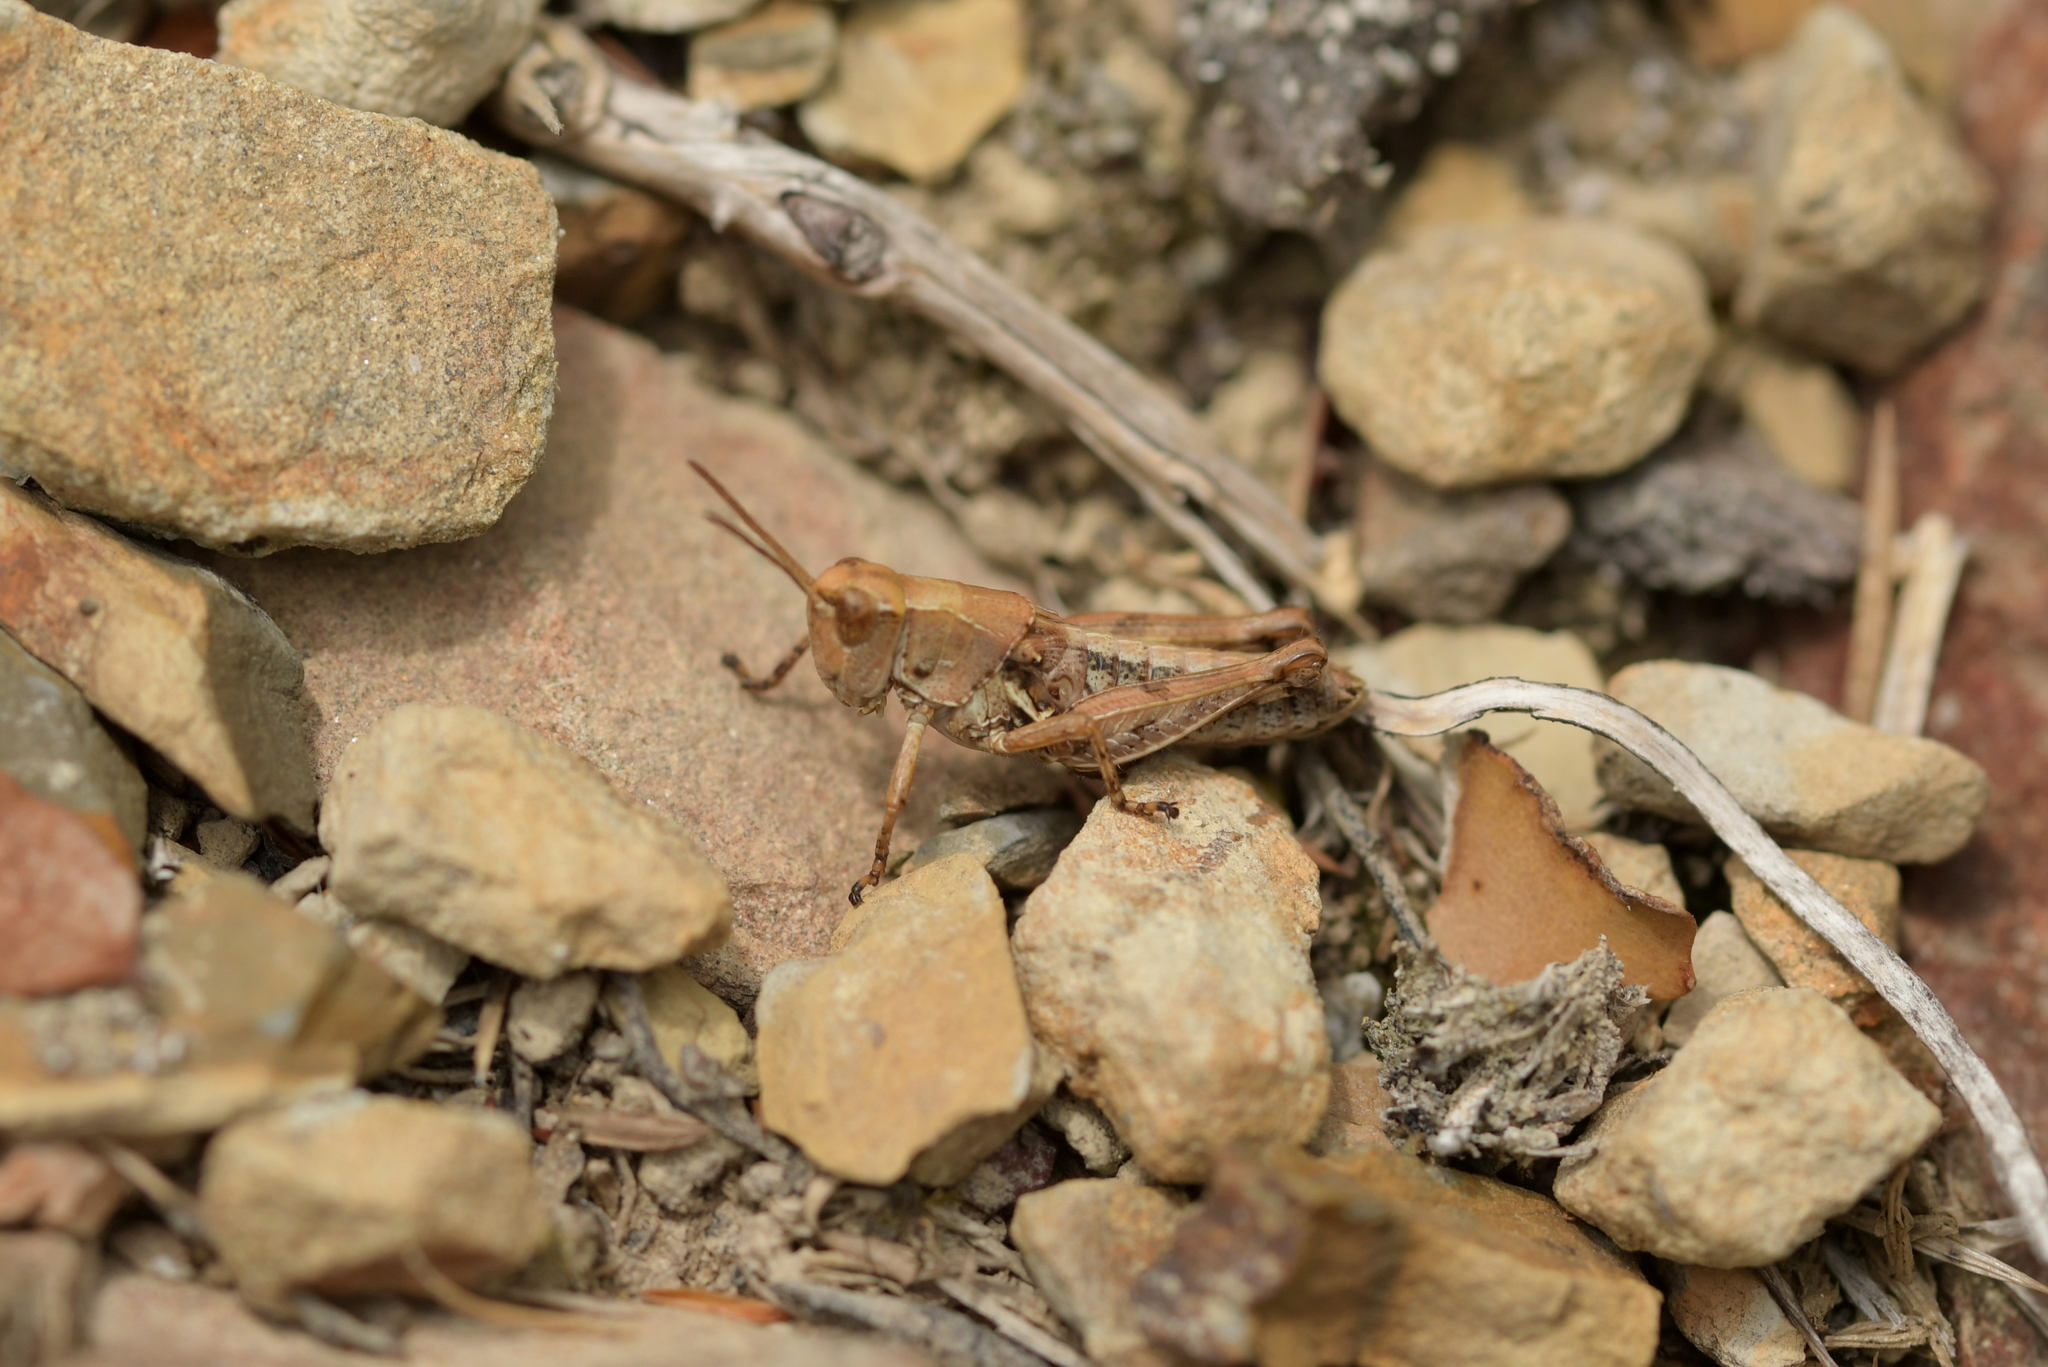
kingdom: Animalia
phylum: Arthropoda
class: Insecta
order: Orthoptera
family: Acrididae
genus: Phaulacridium
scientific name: Phaulacridium marginale
